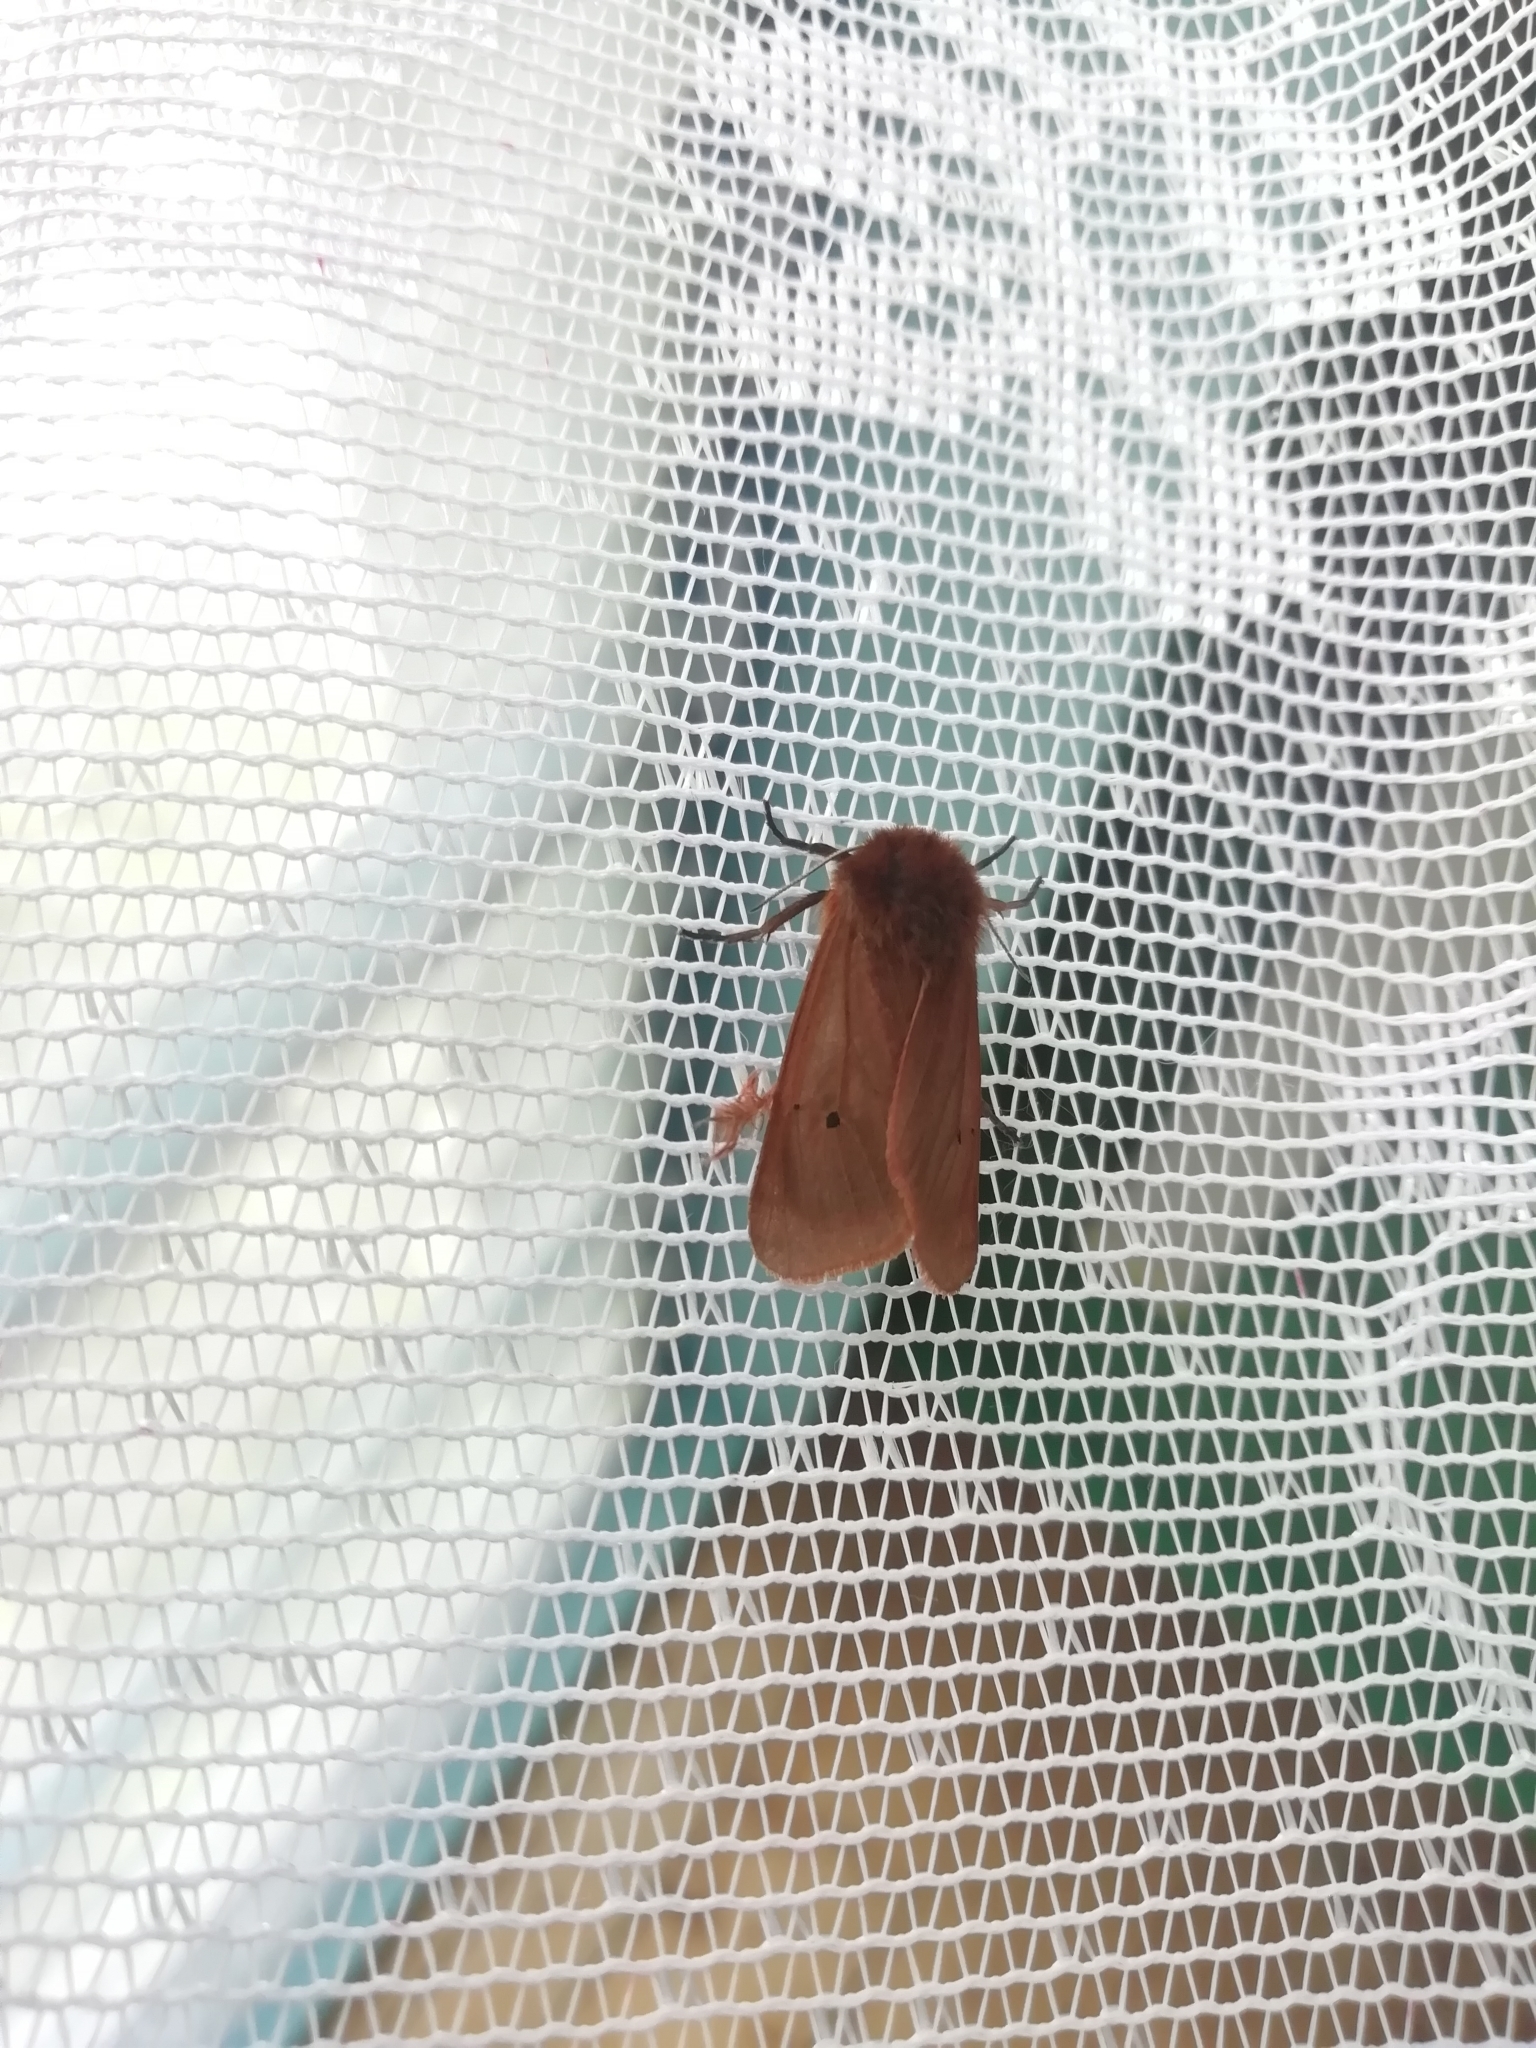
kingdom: Animalia
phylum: Arthropoda
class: Insecta
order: Lepidoptera
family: Erebidae
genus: Phragmatobia
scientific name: Phragmatobia fuliginosa
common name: Ruby tiger
